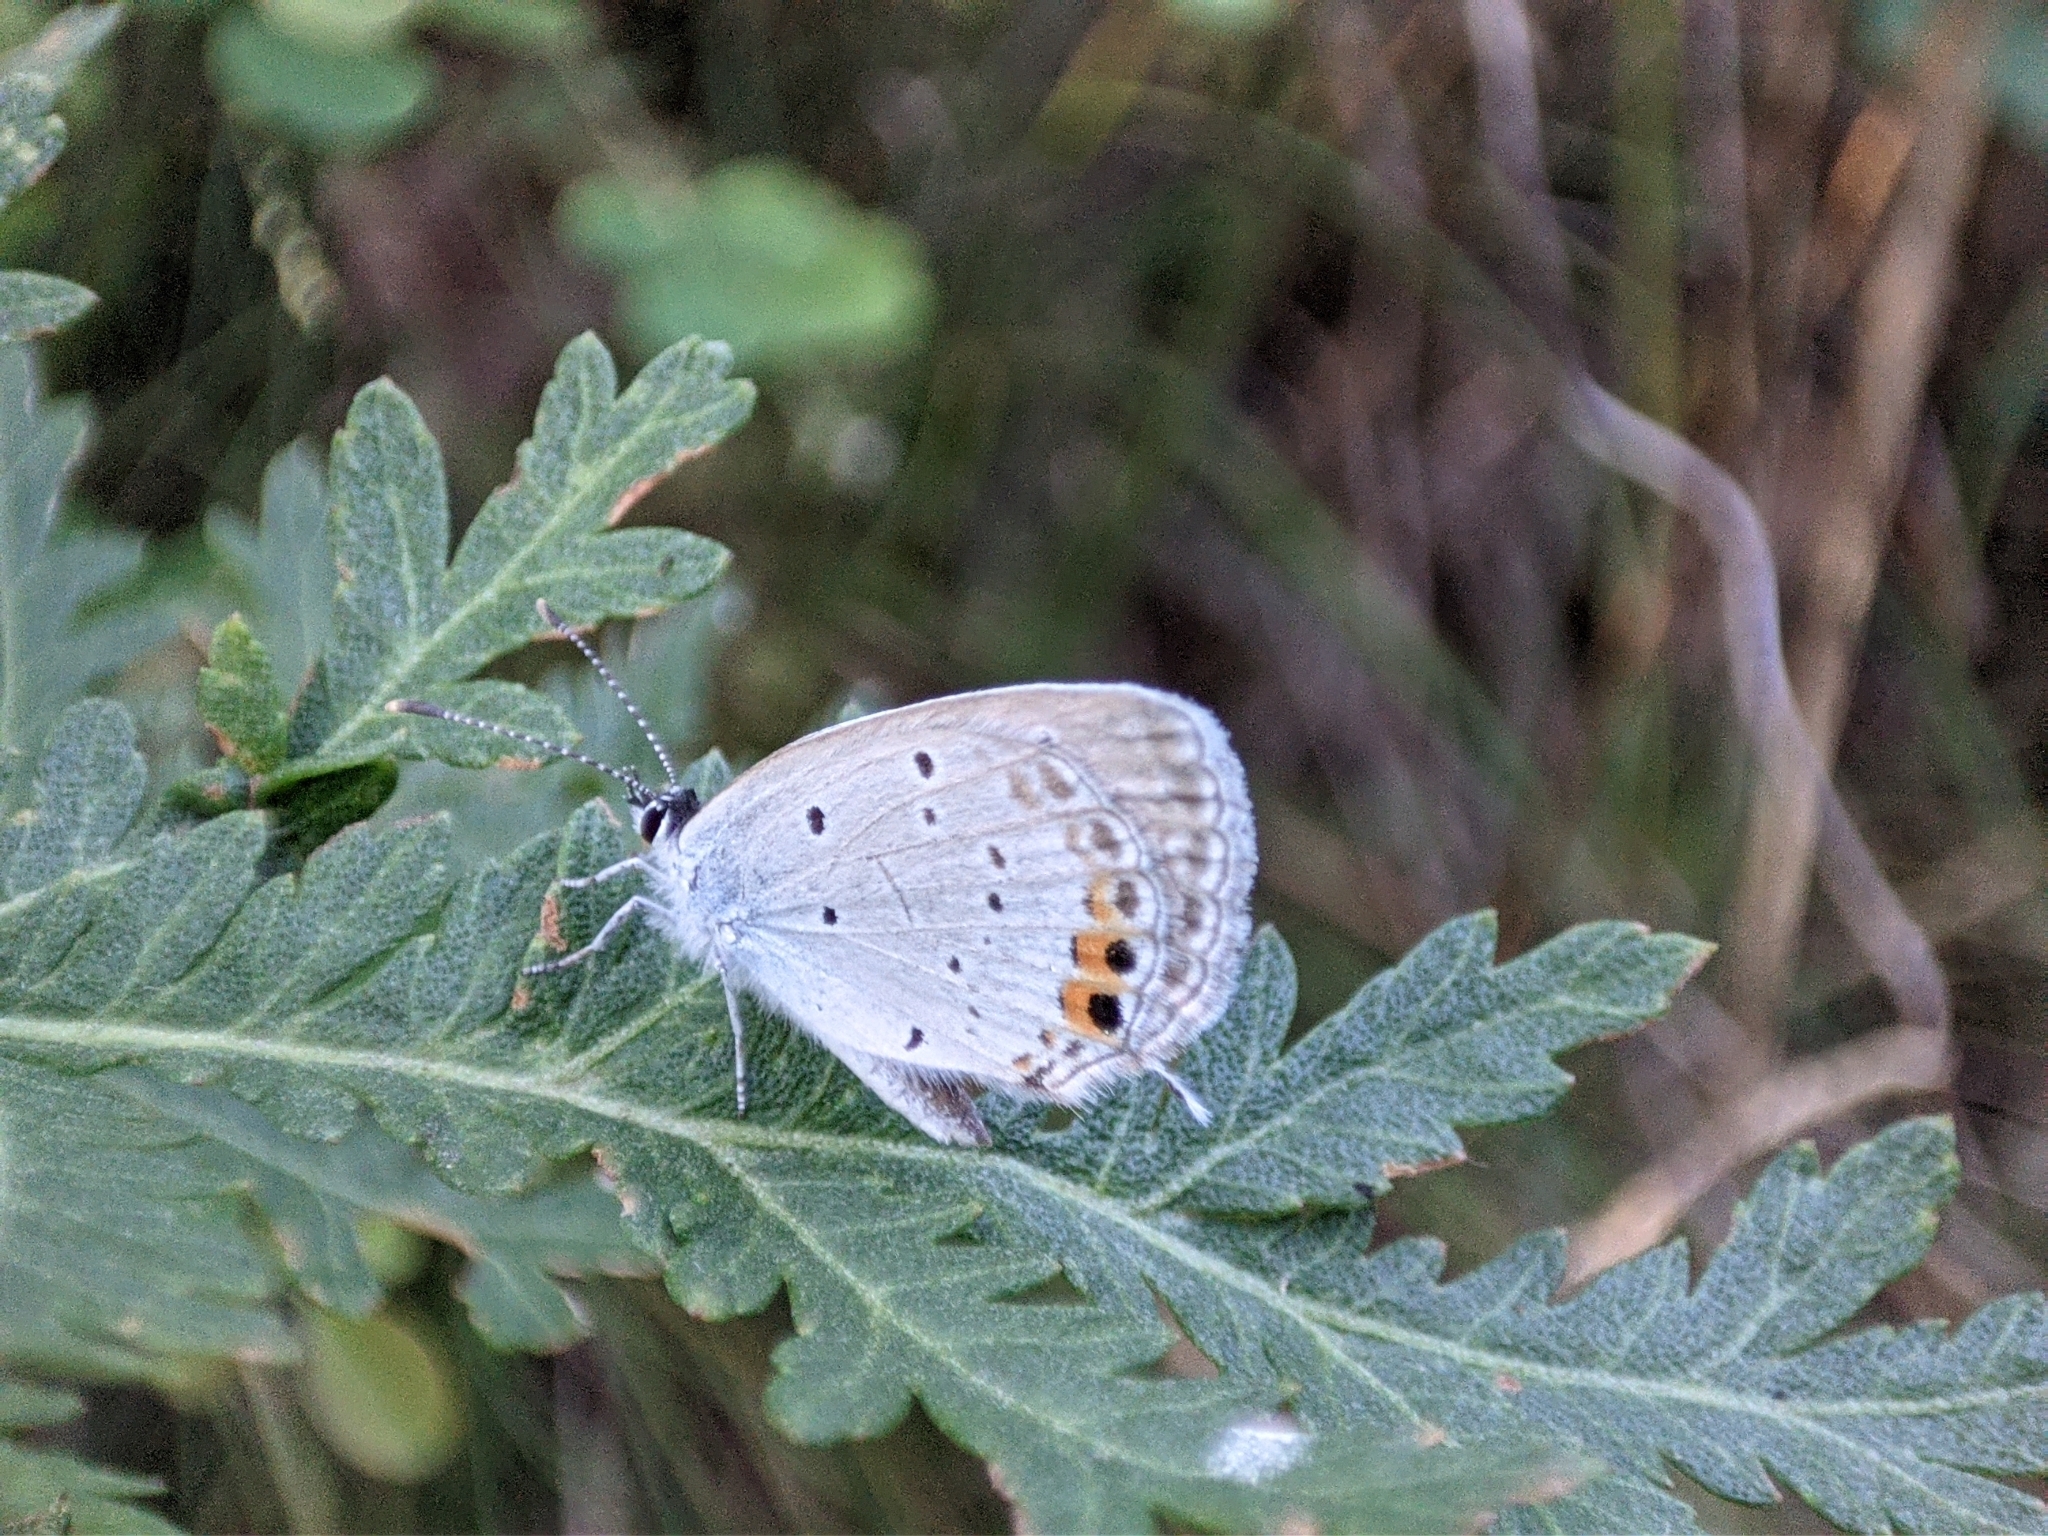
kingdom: Animalia
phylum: Arthropoda
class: Insecta
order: Lepidoptera
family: Lycaenidae
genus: Elkalyce
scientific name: Elkalyce argiades
